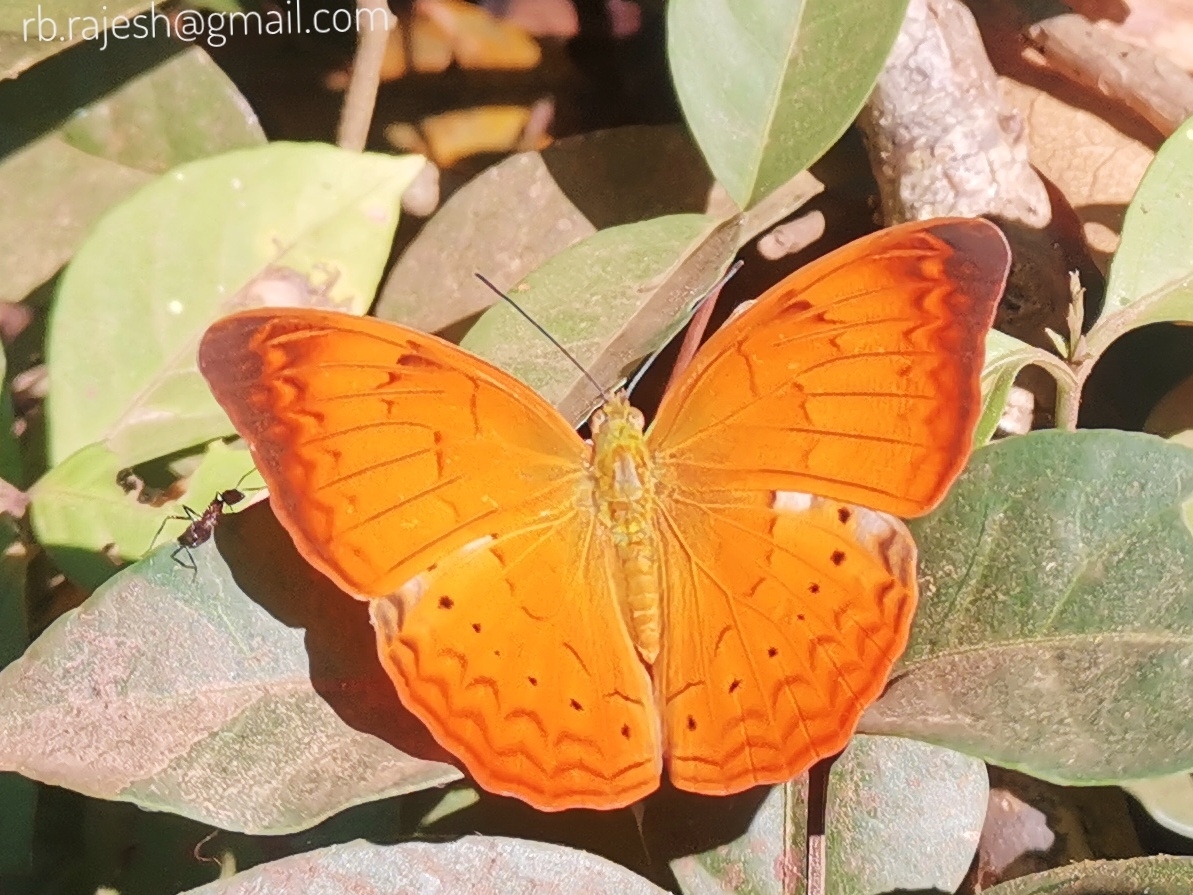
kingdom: Animalia
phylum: Arthropoda
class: Insecta
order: Lepidoptera
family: Nymphalidae
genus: Cirrochroa
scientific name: Cirrochroa thais
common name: Tamil yeoman
